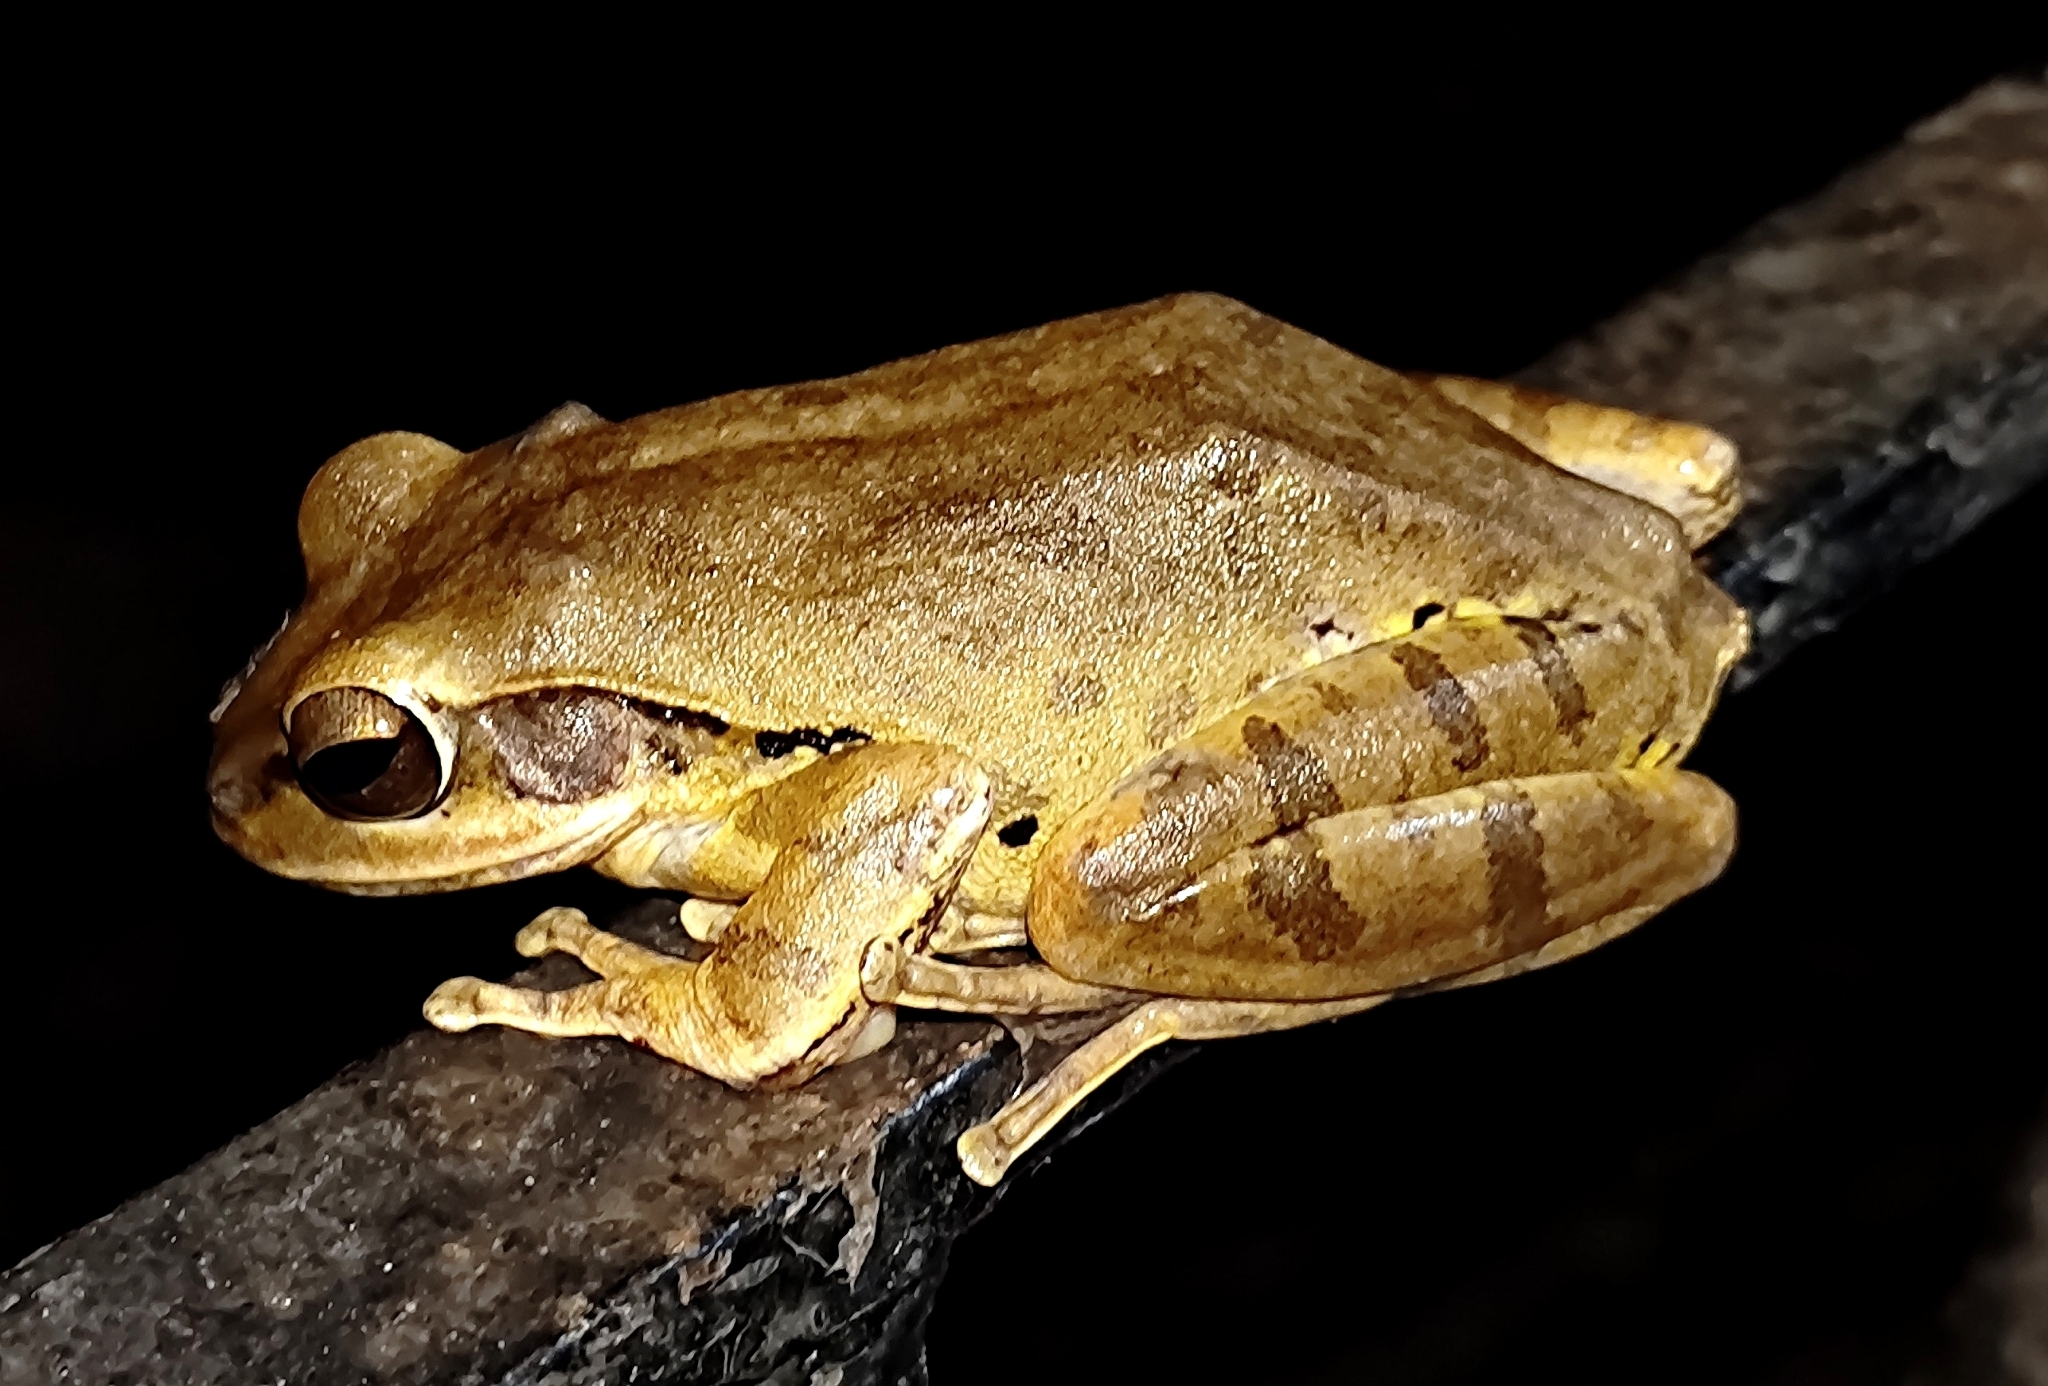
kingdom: Animalia
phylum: Chordata
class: Amphibia
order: Anura
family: Rhacophoridae
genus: Polypedates
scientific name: Polypedates maculatus
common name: Himalayan tree frog
